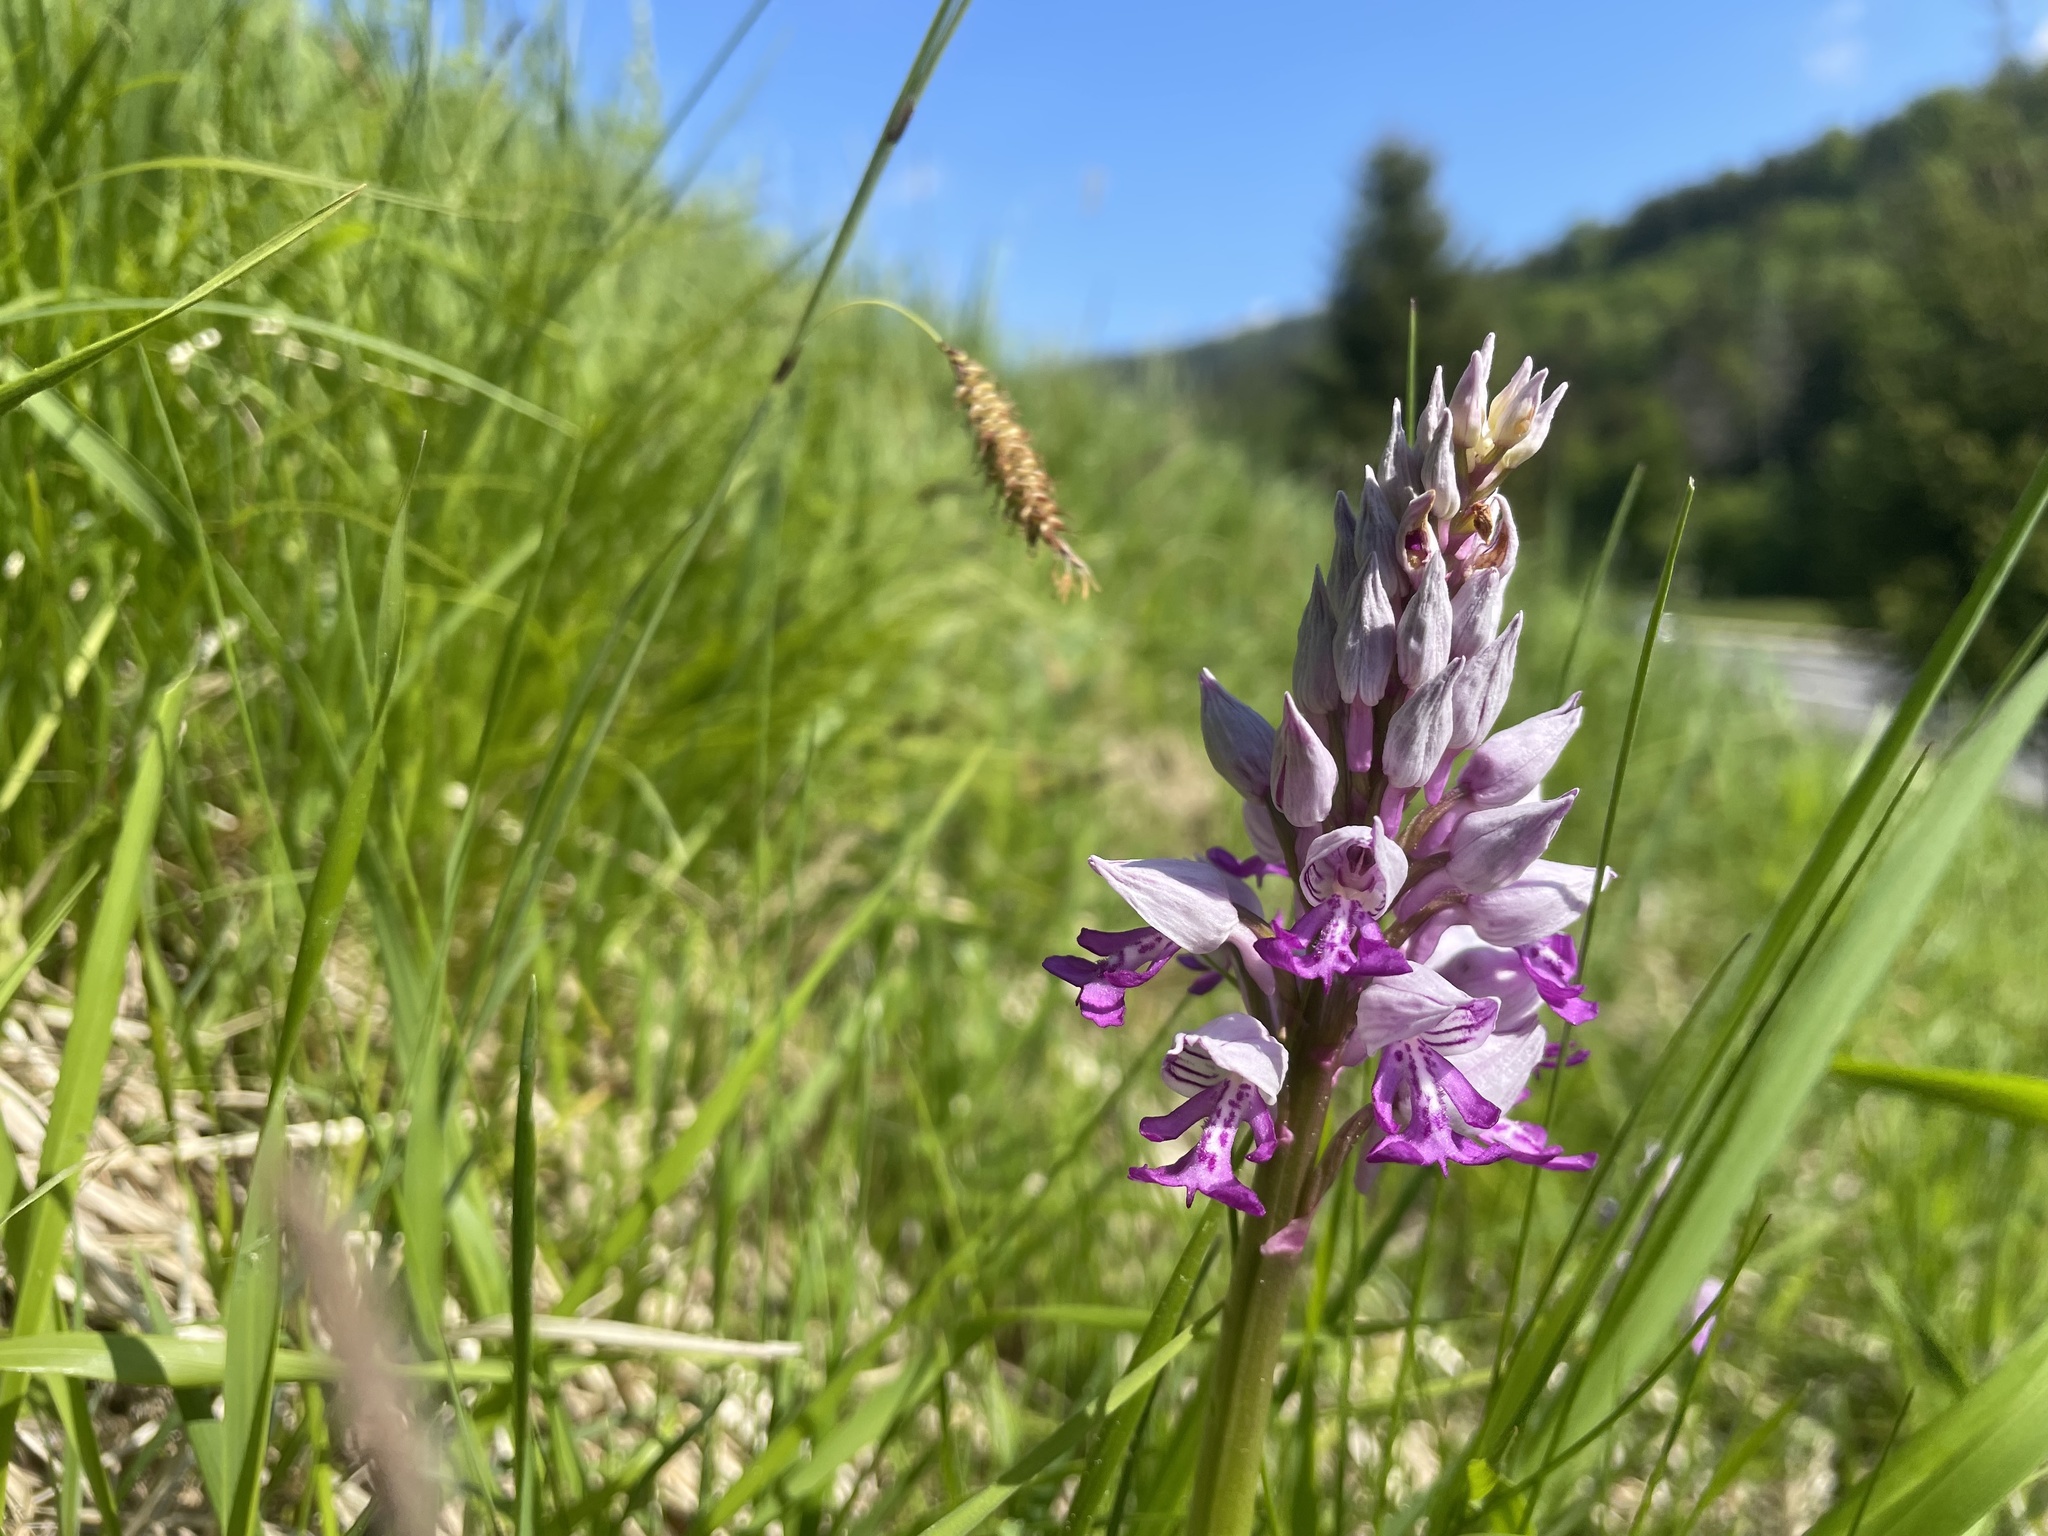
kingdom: Plantae
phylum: Tracheophyta
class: Liliopsida
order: Asparagales
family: Orchidaceae
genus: Orchis
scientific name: Orchis militaris
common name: Military orchid
